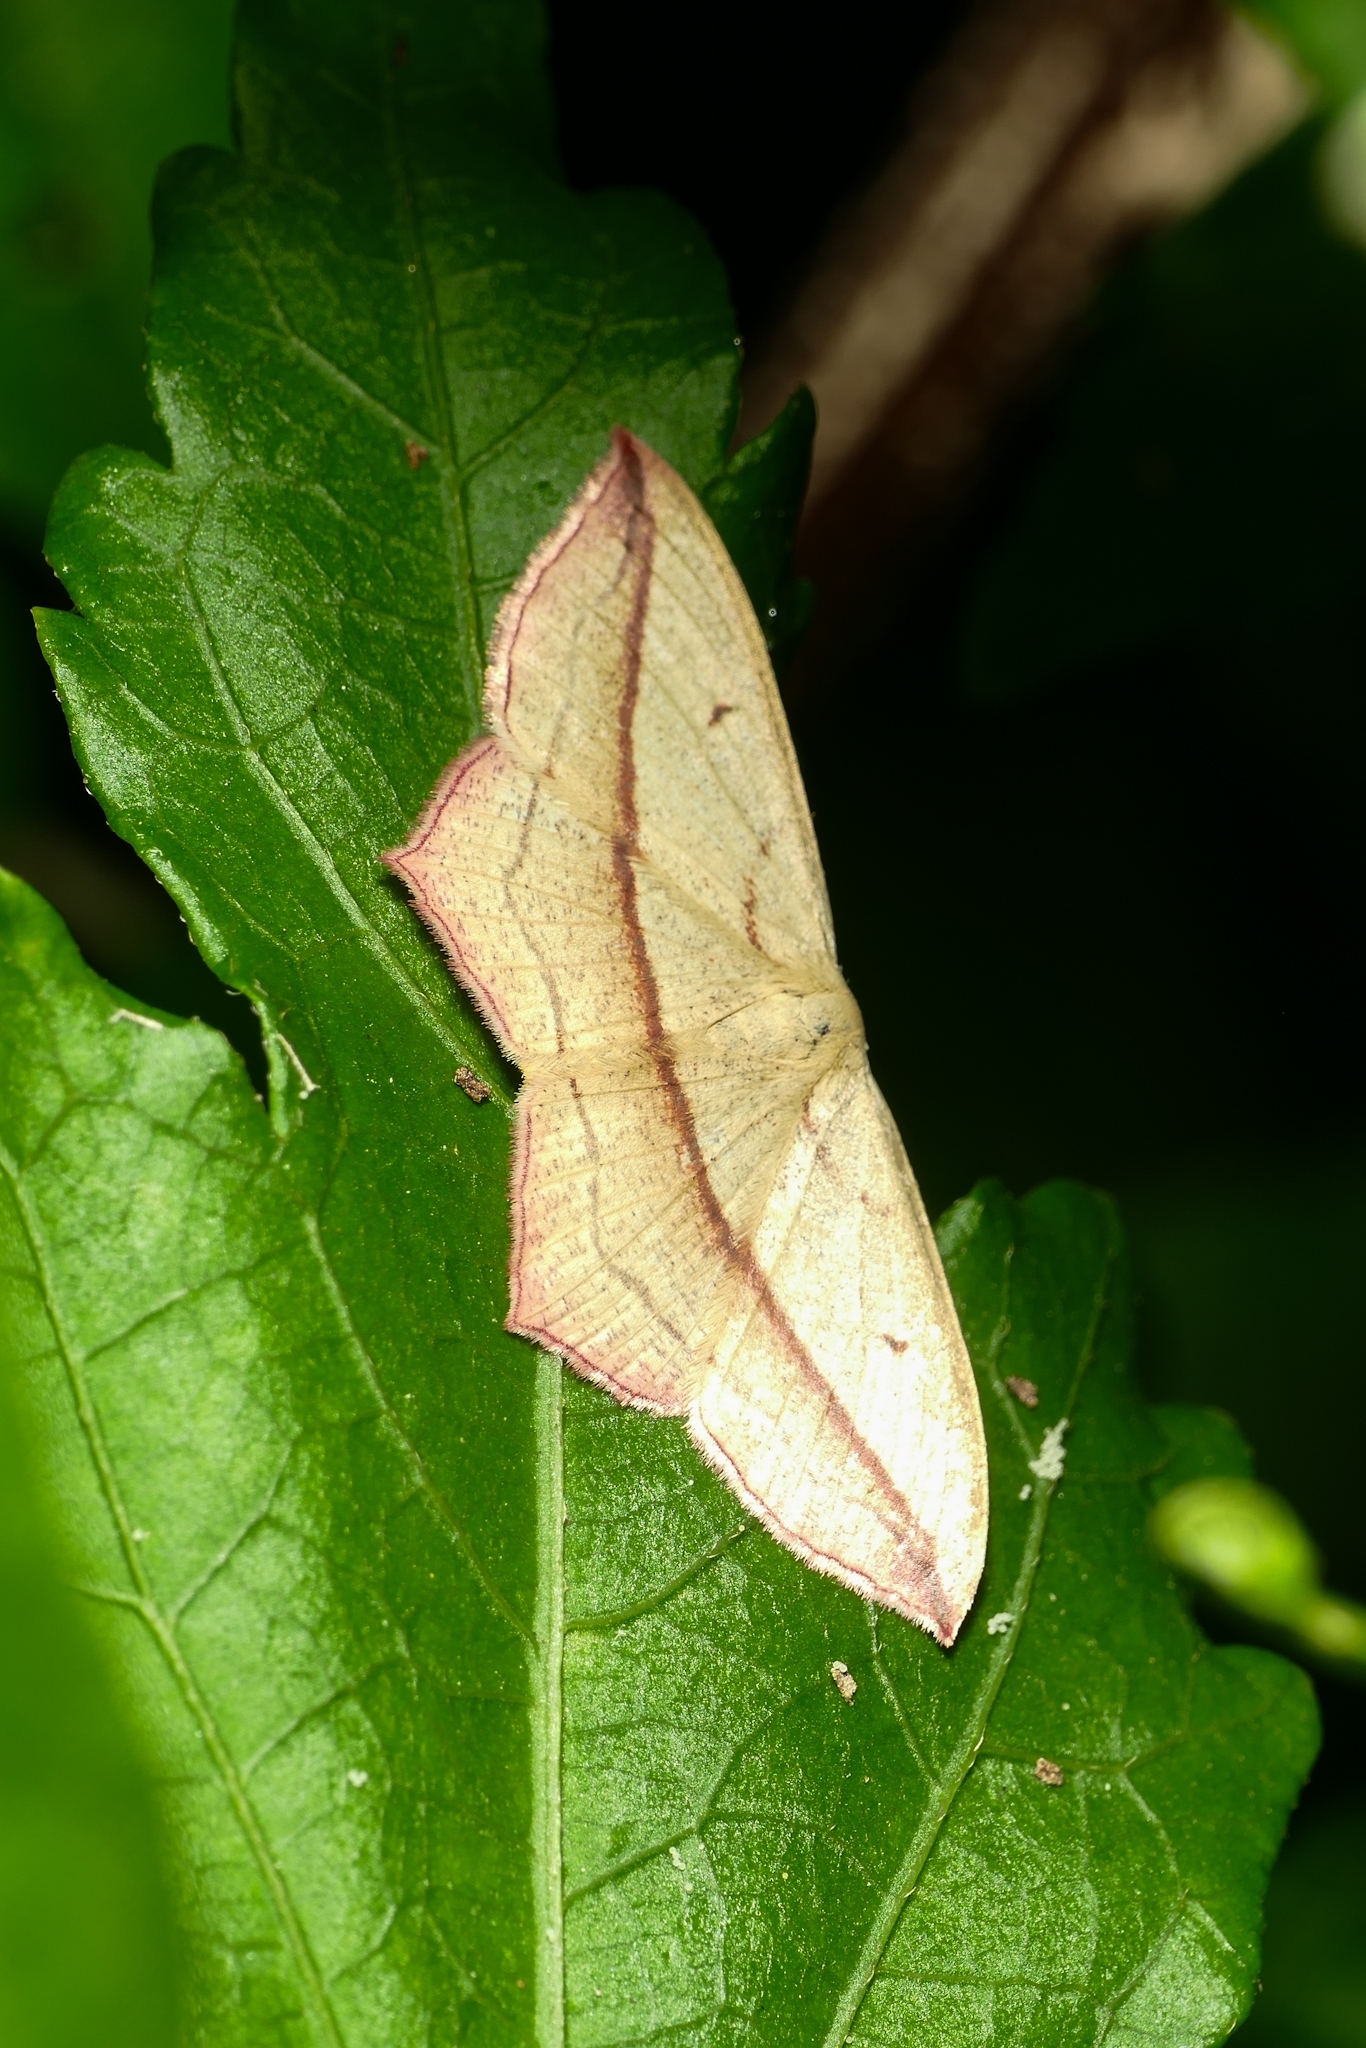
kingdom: Animalia
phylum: Arthropoda
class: Insecta
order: Lepidoptera
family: Geometridae
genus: Timandra
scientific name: Timandra comae
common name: Blood-vein
